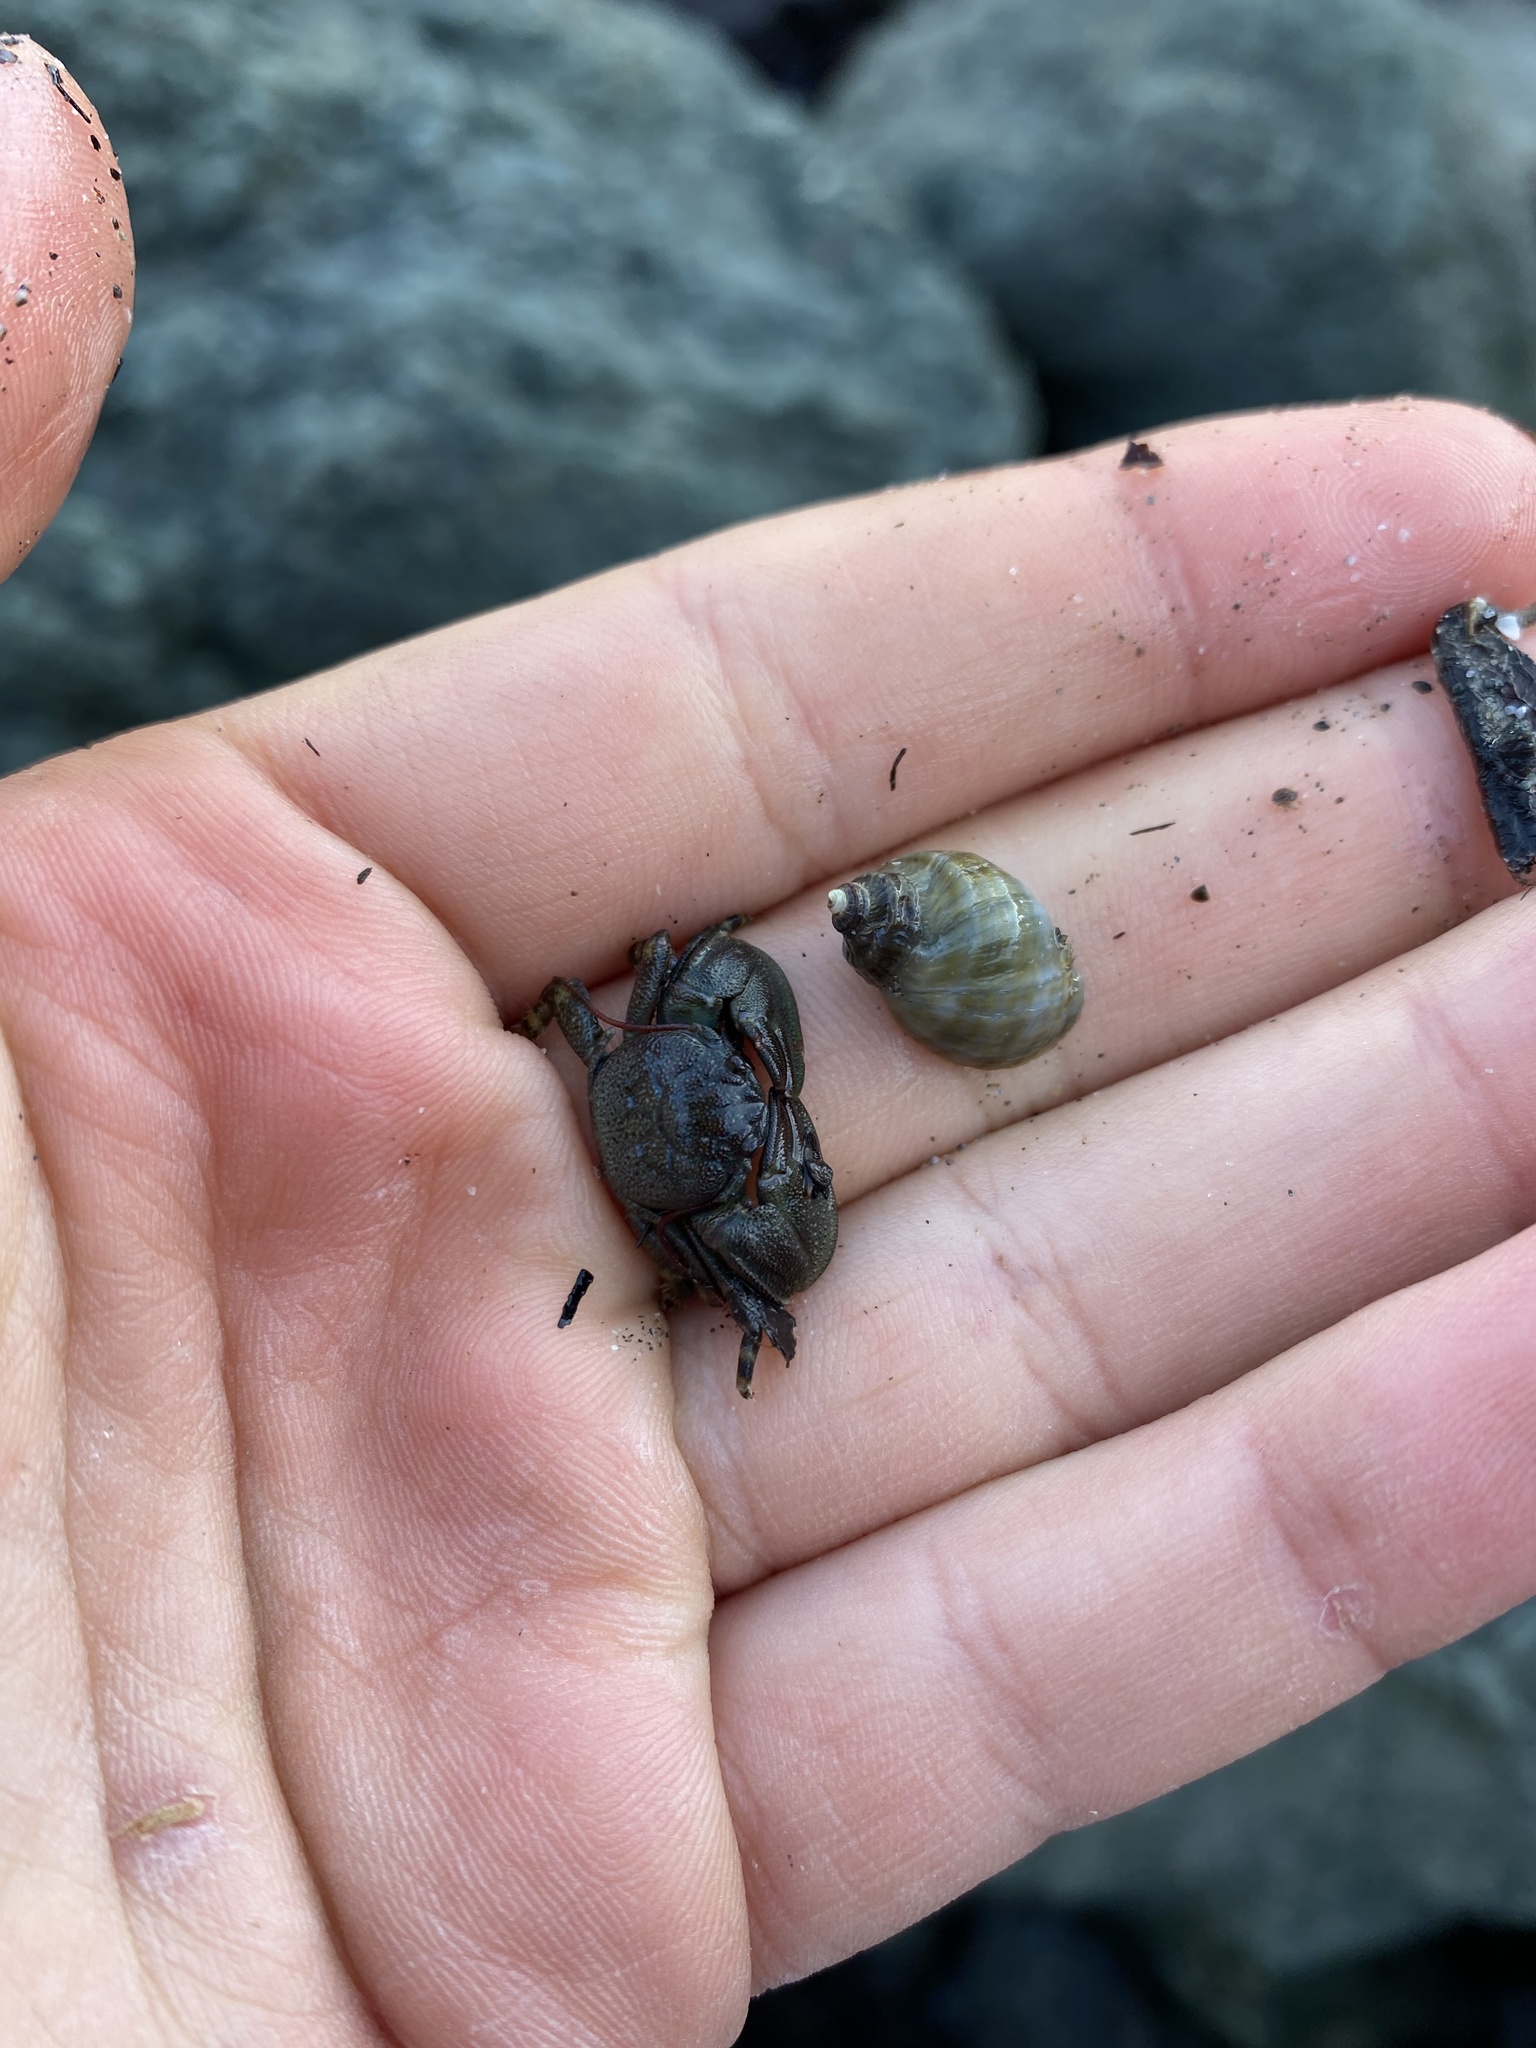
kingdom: Animalia
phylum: Arthropoda
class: Malacostraca
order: Decapoda
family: Porcellanidae
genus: Petrolisthes
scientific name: Petrolisthes cinctipes
